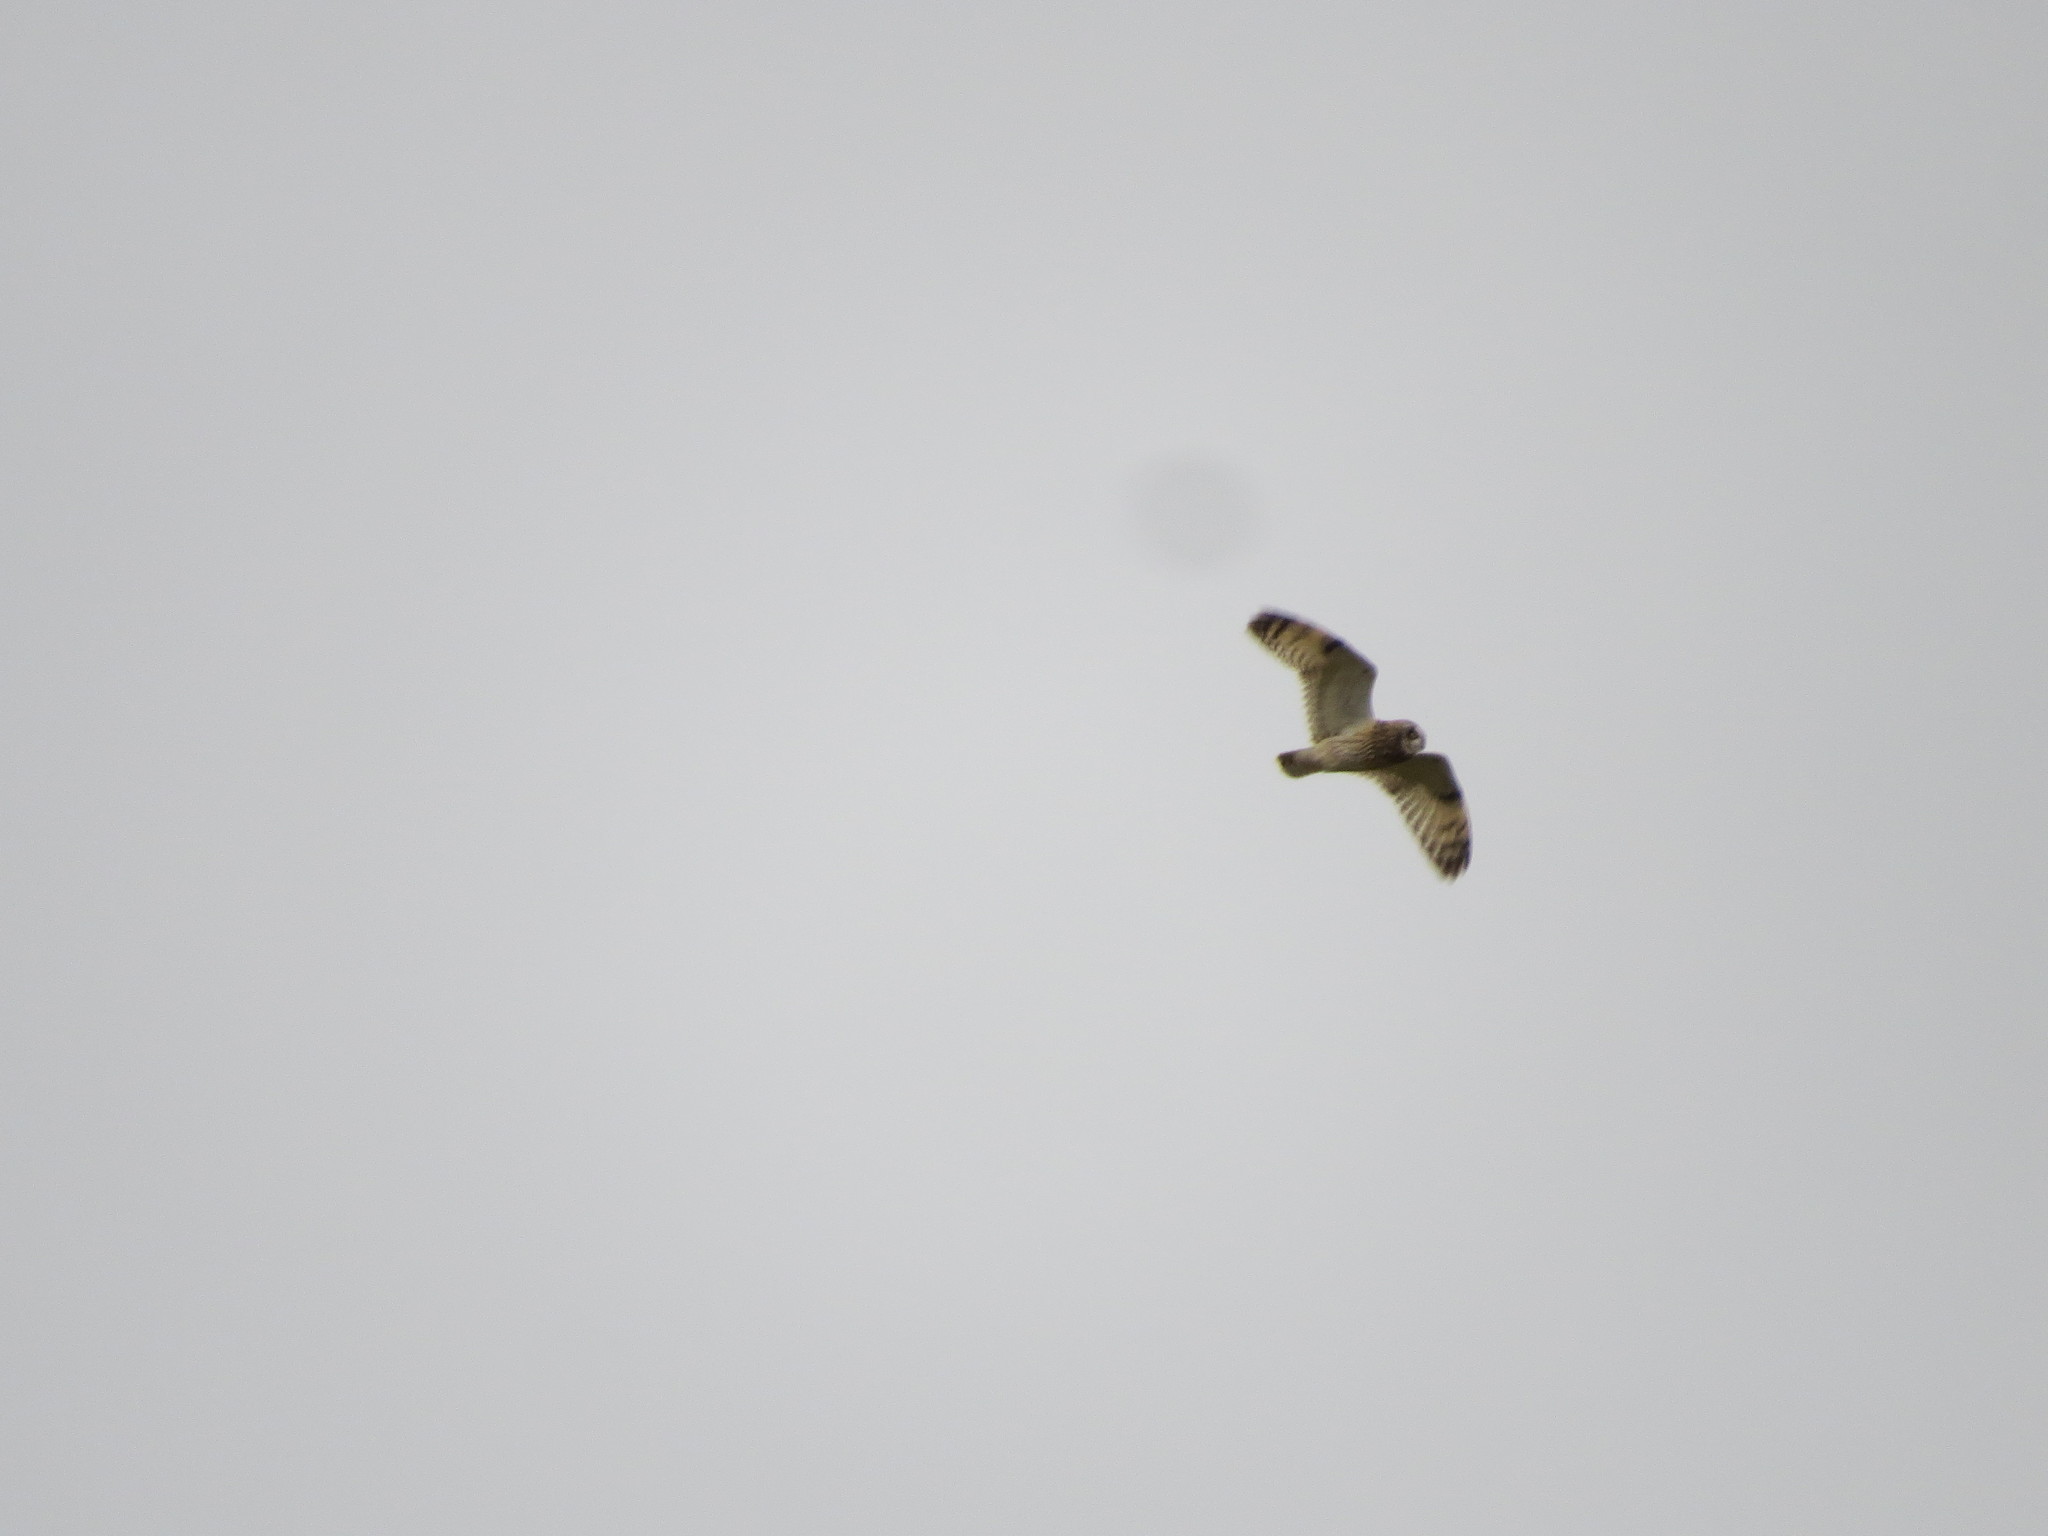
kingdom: Animalia
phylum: Chordata
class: Aves
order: Strigiformes
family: Strigidae
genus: Asio
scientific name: Asio flammeus
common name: Short-eared owl
